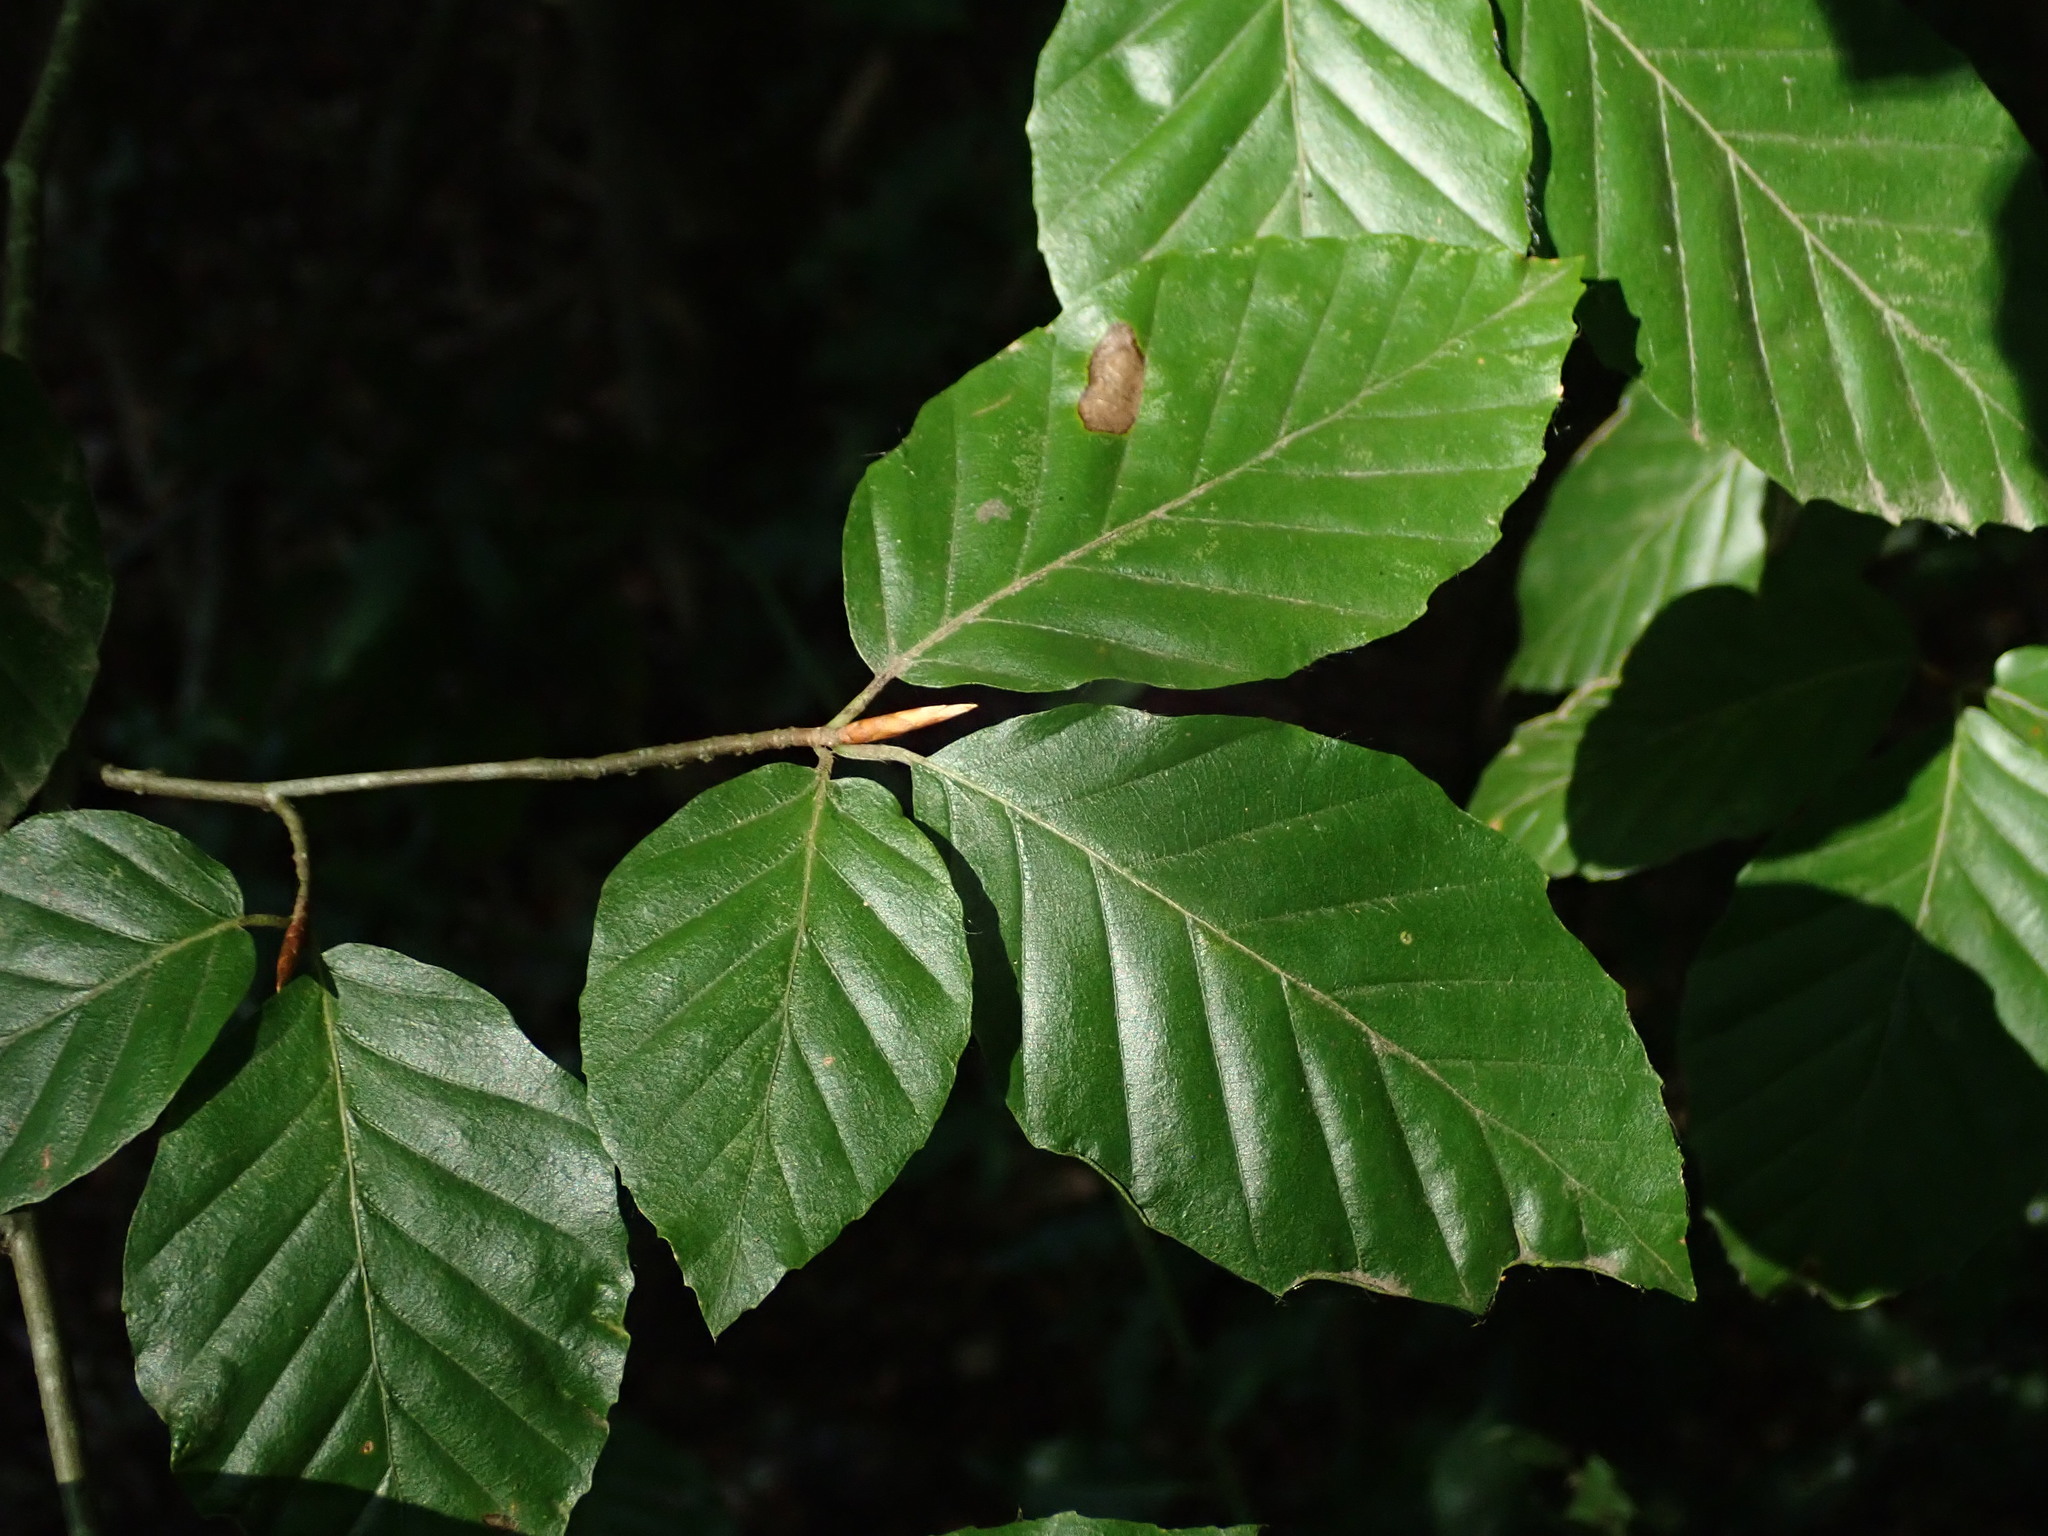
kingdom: Plantae
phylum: Tracheophyta
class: Magnoliopsida
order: Fagales
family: Fagaceae
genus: Fagus
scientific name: Fagus sylvatica
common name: Beech
